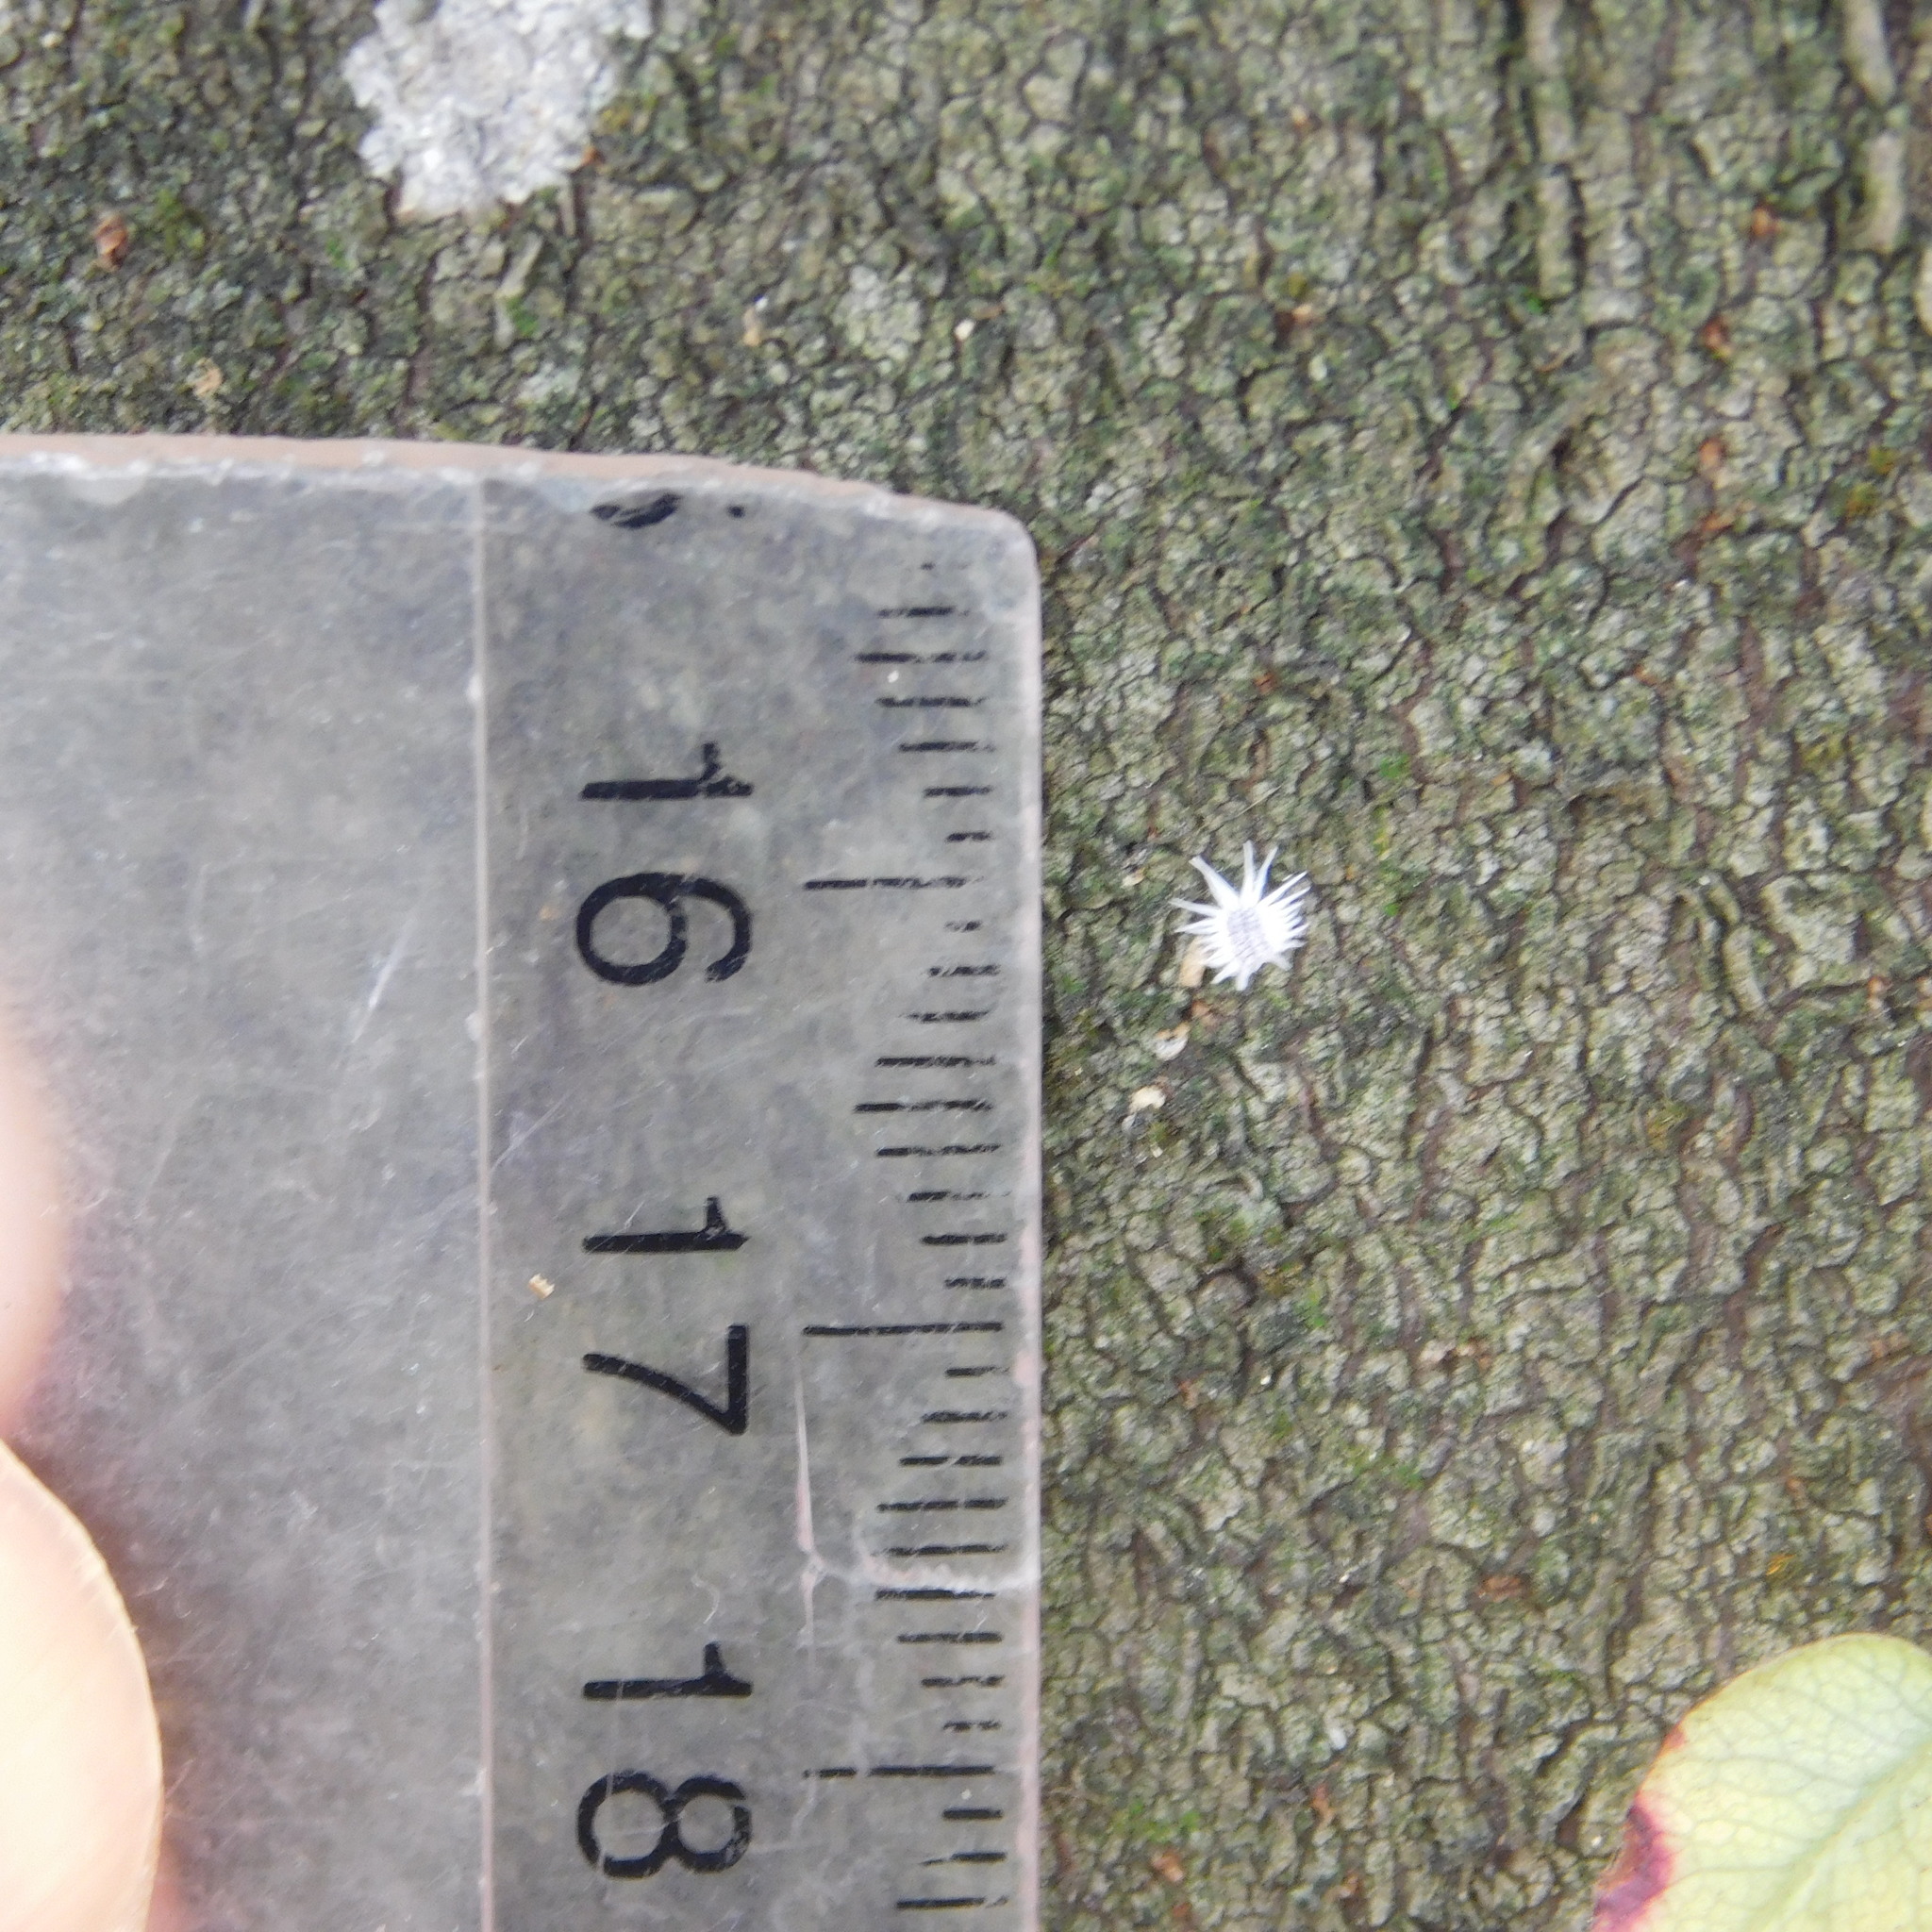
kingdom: Animalia
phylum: Arthropoda
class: Insecta
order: Coleoptera
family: Coccinellidae
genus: Telsimia
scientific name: Telsimia
